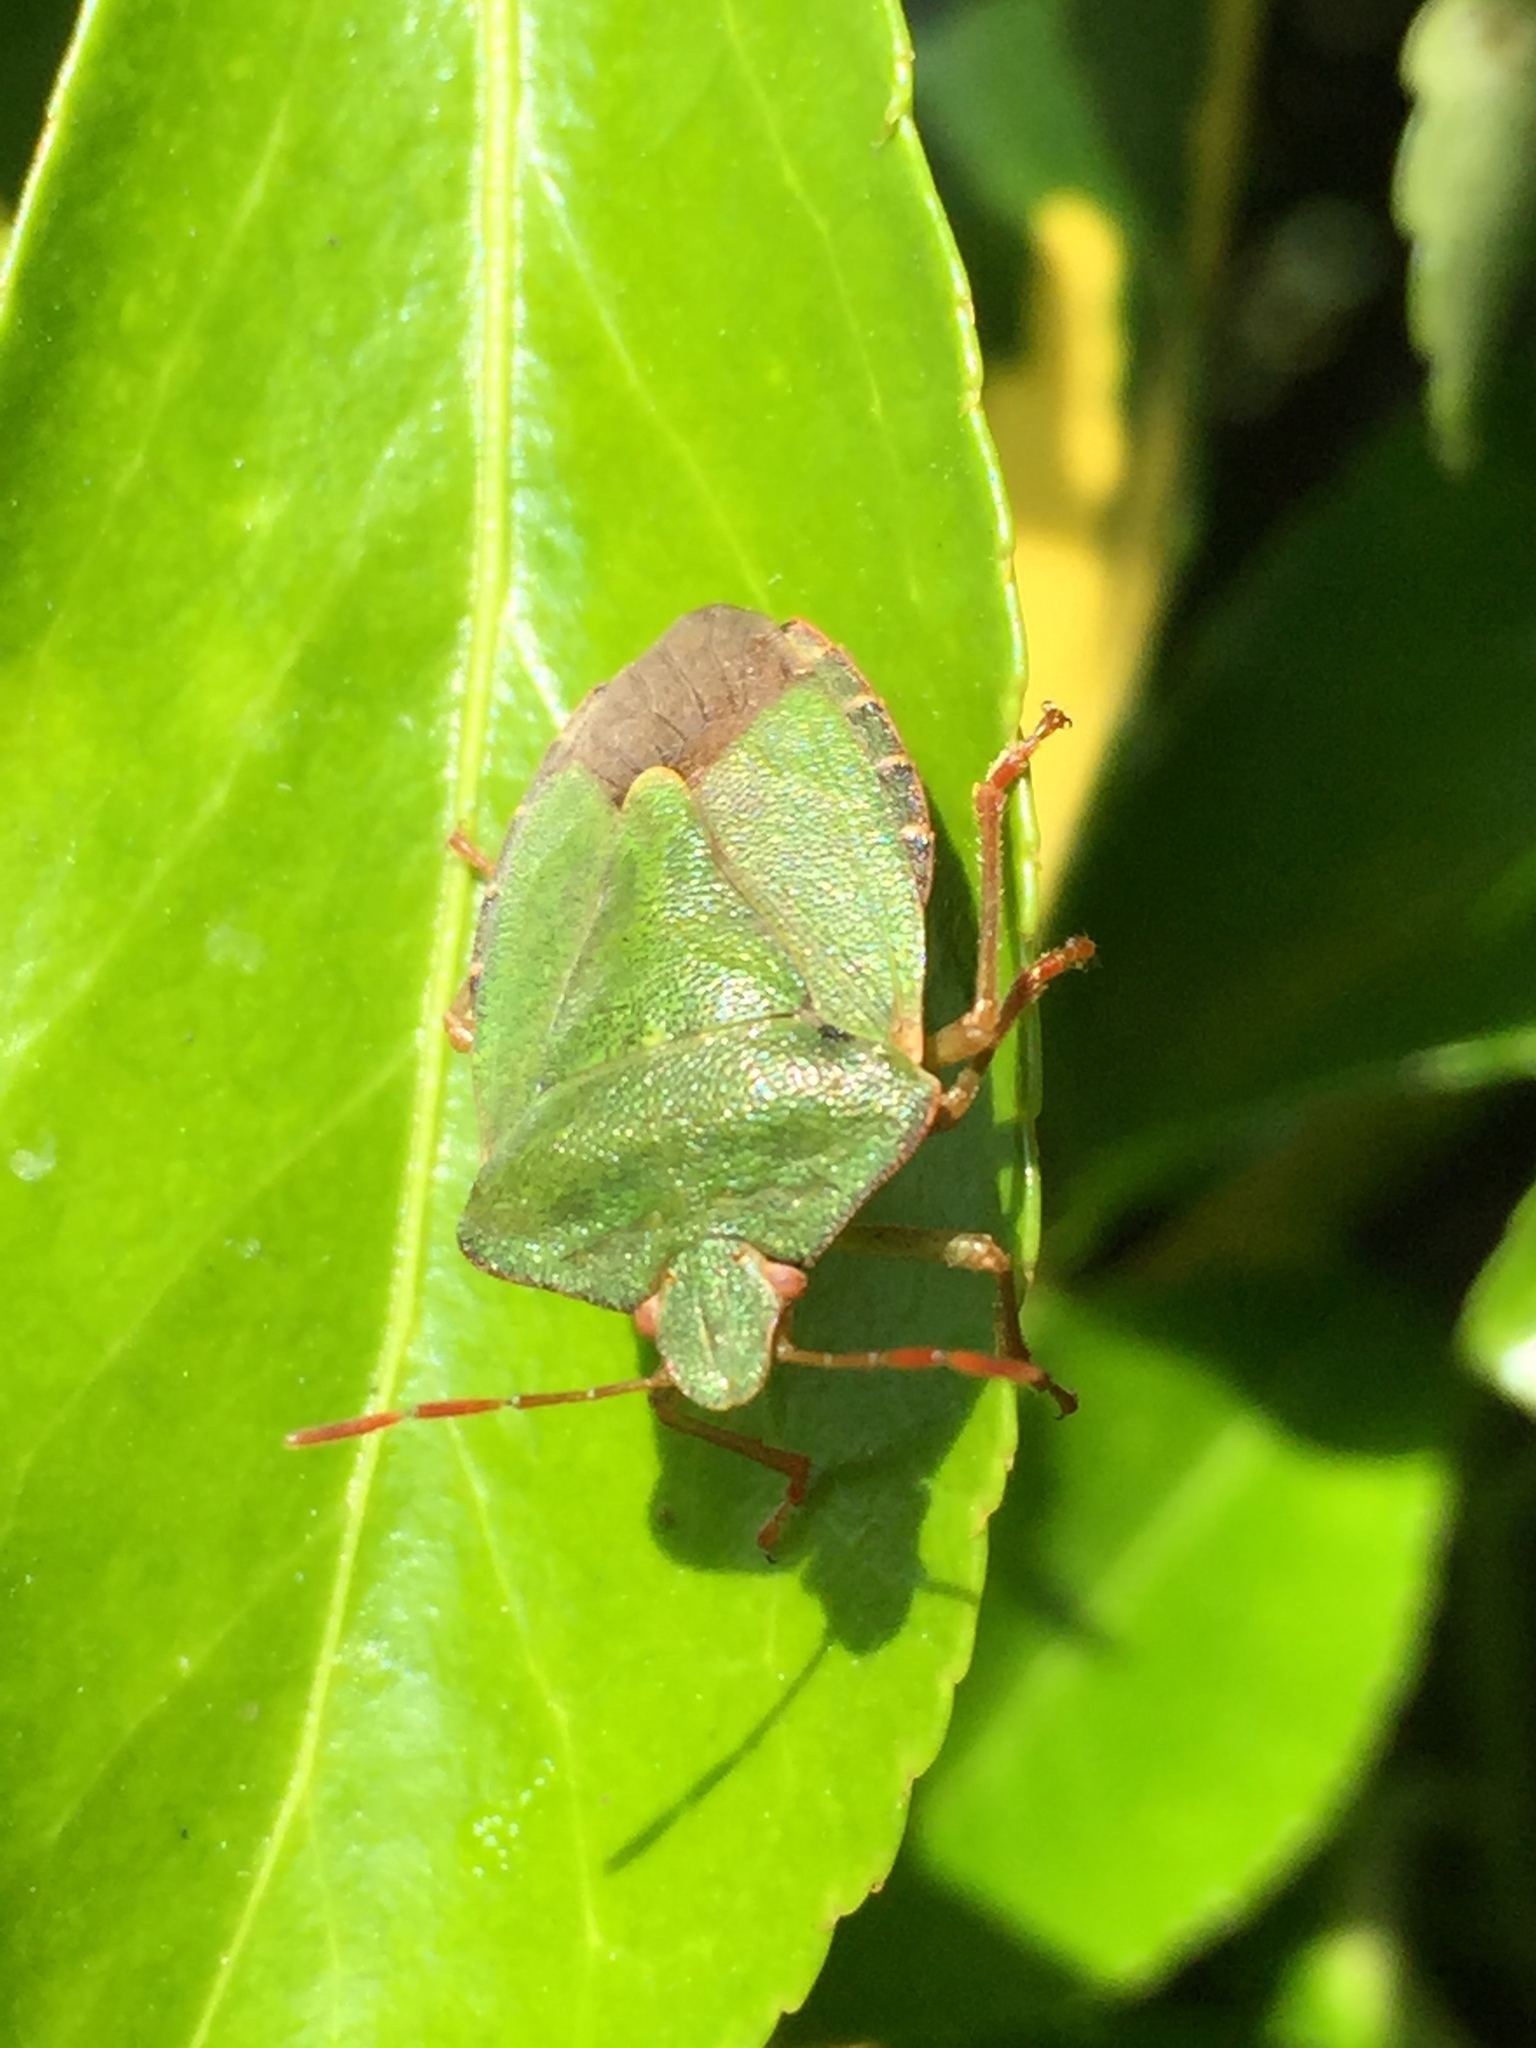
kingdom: Animalia
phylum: Arthropoda
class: Insecta
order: Hemiptera
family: Pentatomidae
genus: Palomena
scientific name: Palomena prasina
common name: Green shieldbug
